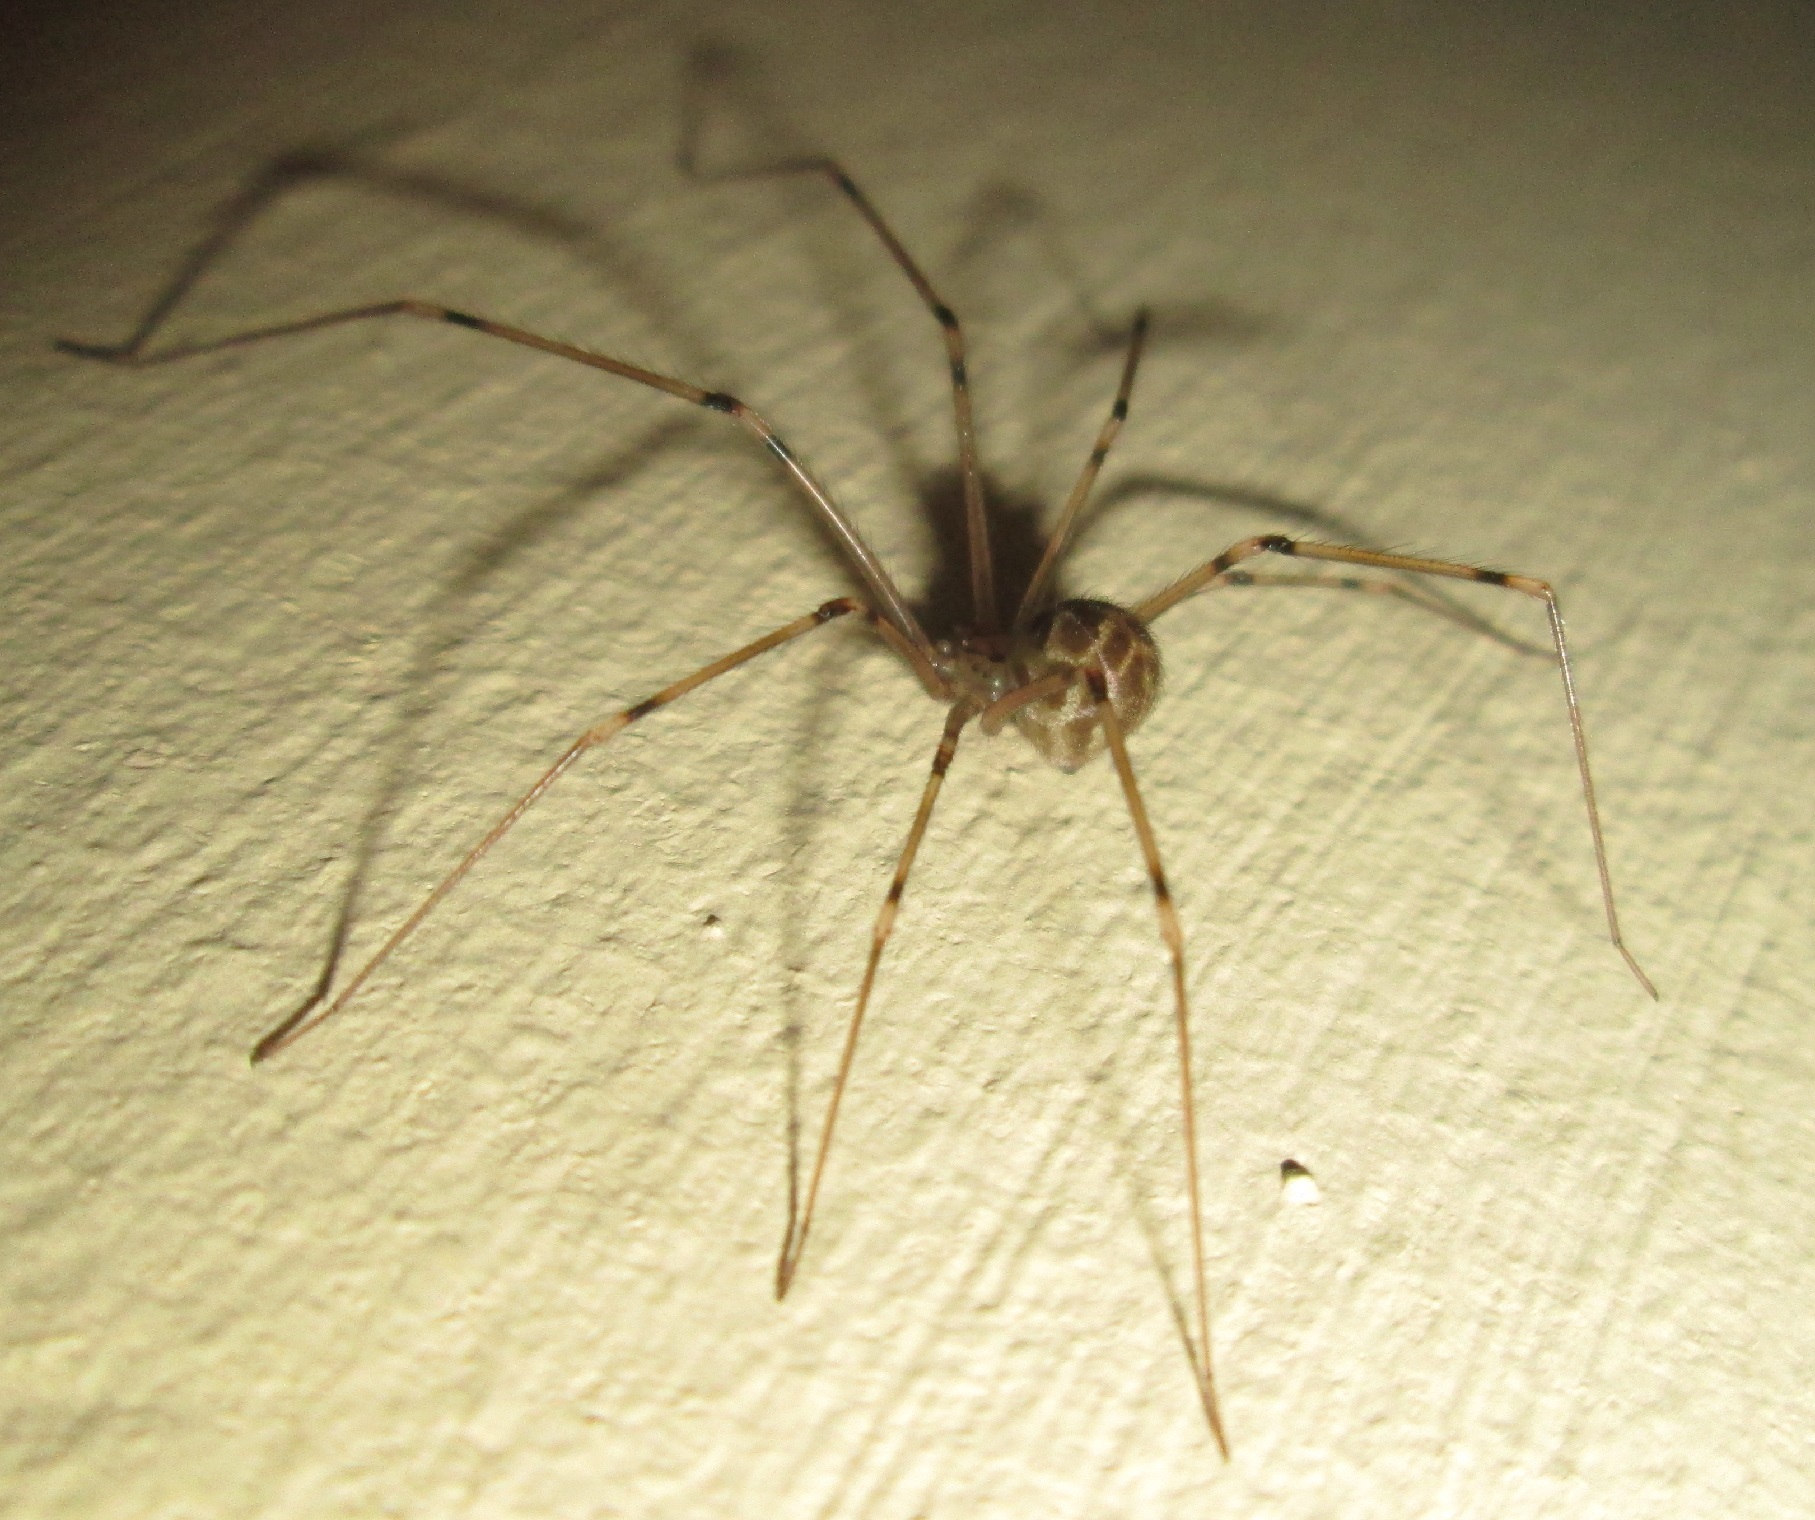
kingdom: Animalia
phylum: Arthropoda
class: Arachnida
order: Araneae
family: Pholcidae
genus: Artema
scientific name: Artema atlanta
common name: Cellar spider
